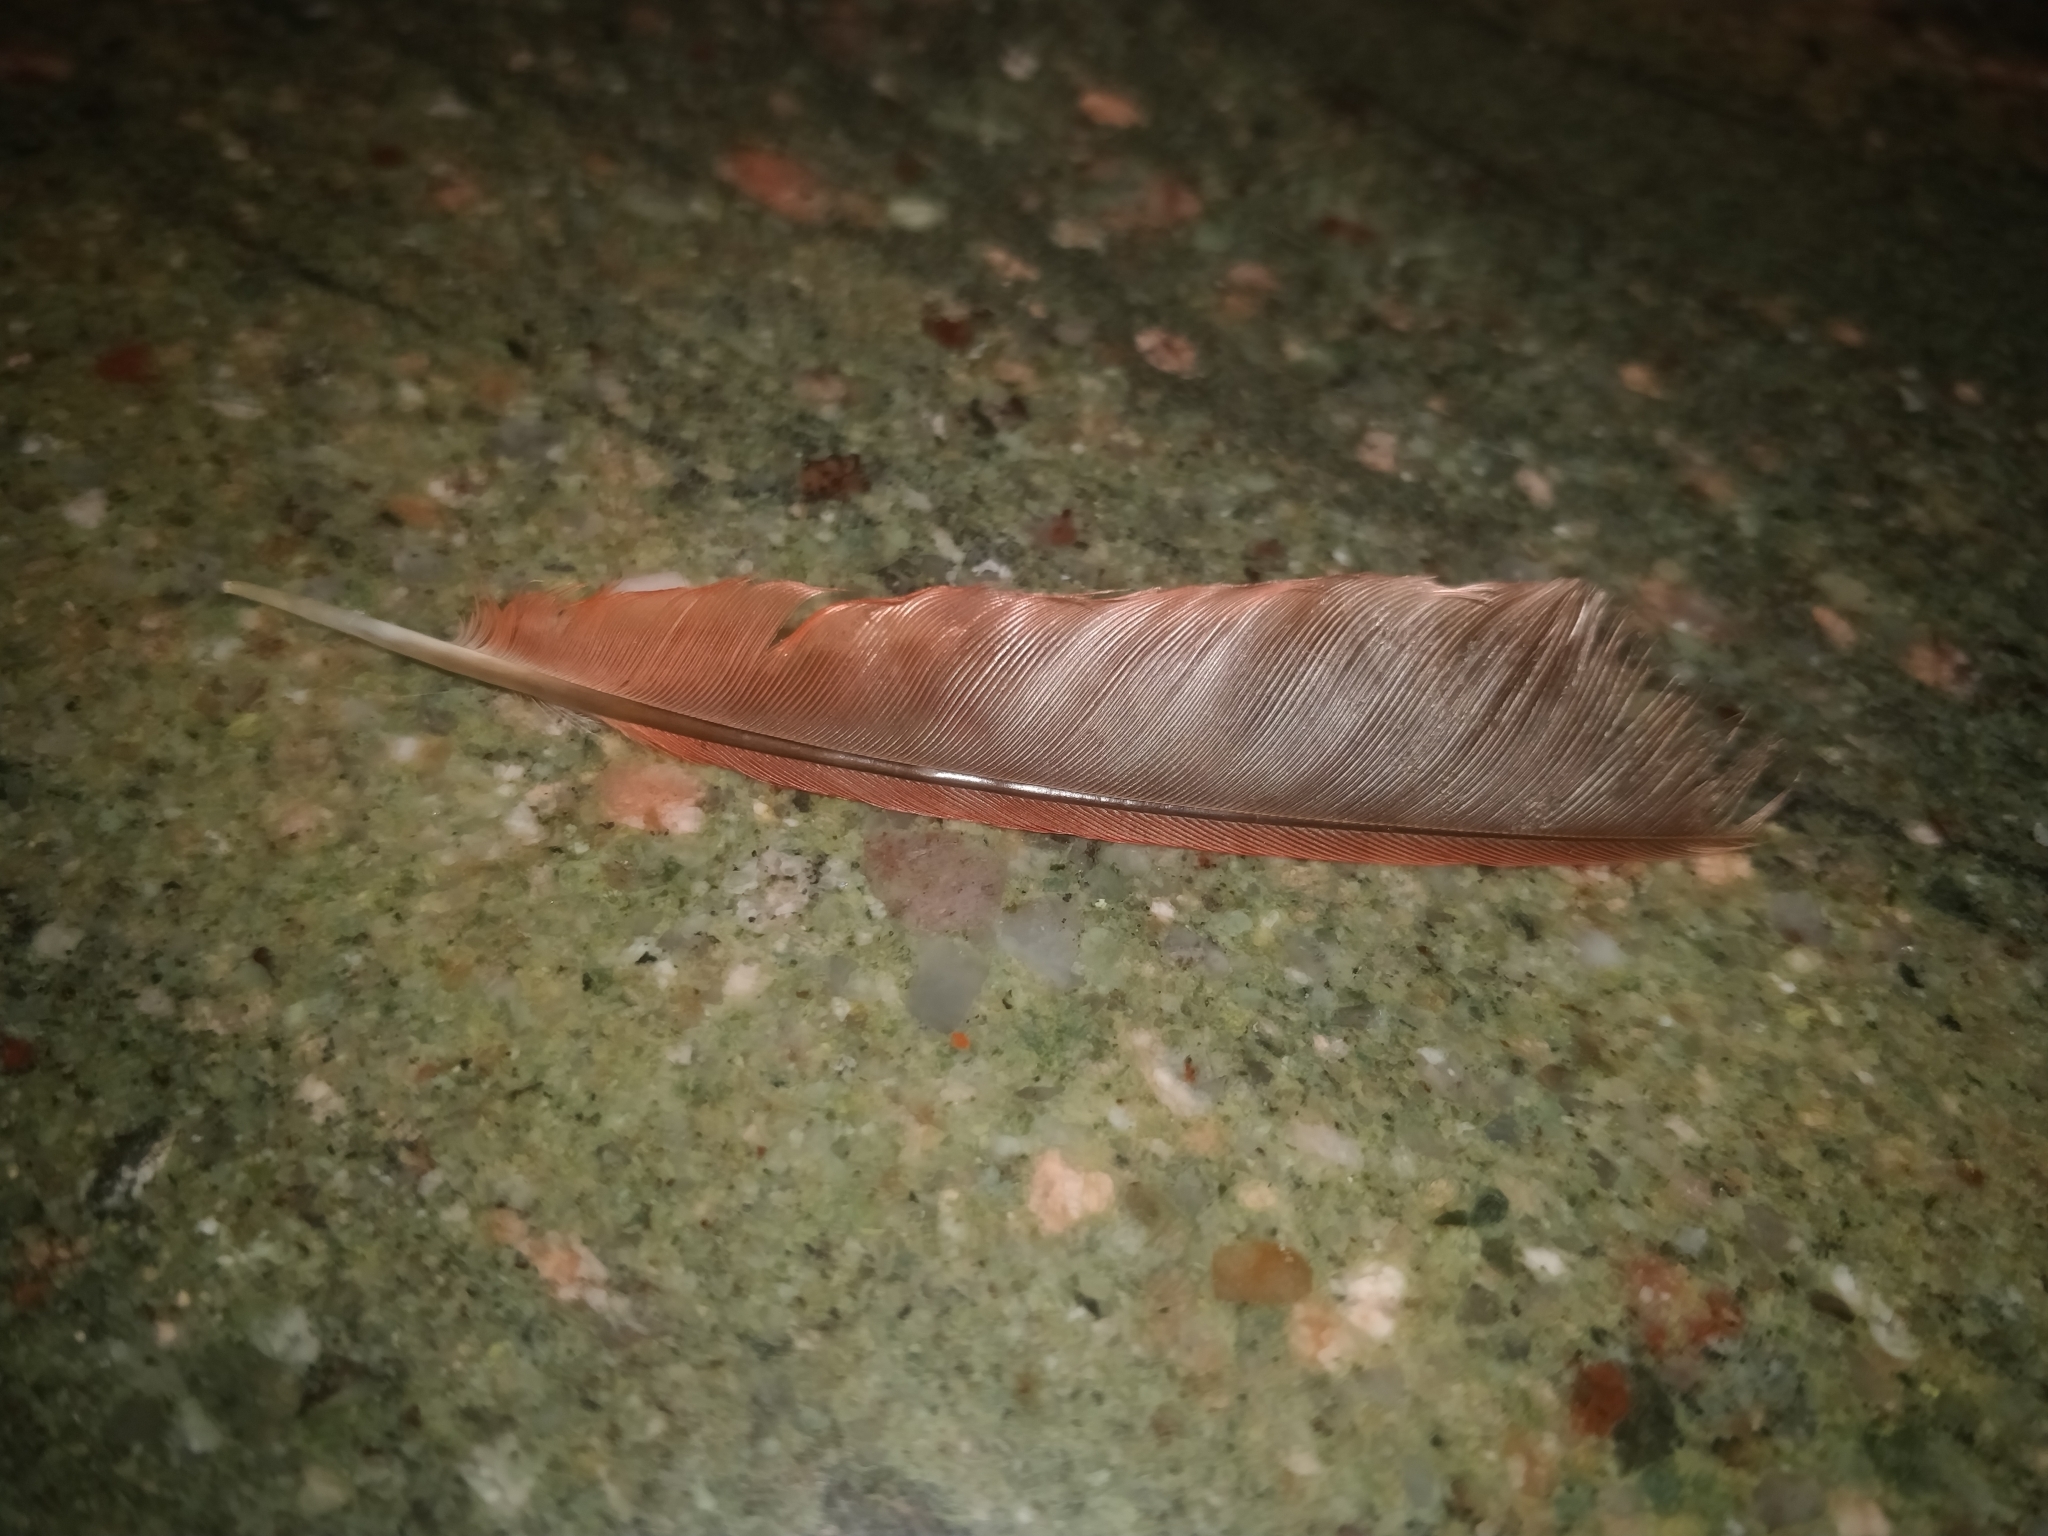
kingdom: Animalia
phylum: Chordata
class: Aves
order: Passeriformes
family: Cardinalidae
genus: Cardinalis
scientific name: Cardinalis cardinalis
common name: Northern cardinal
